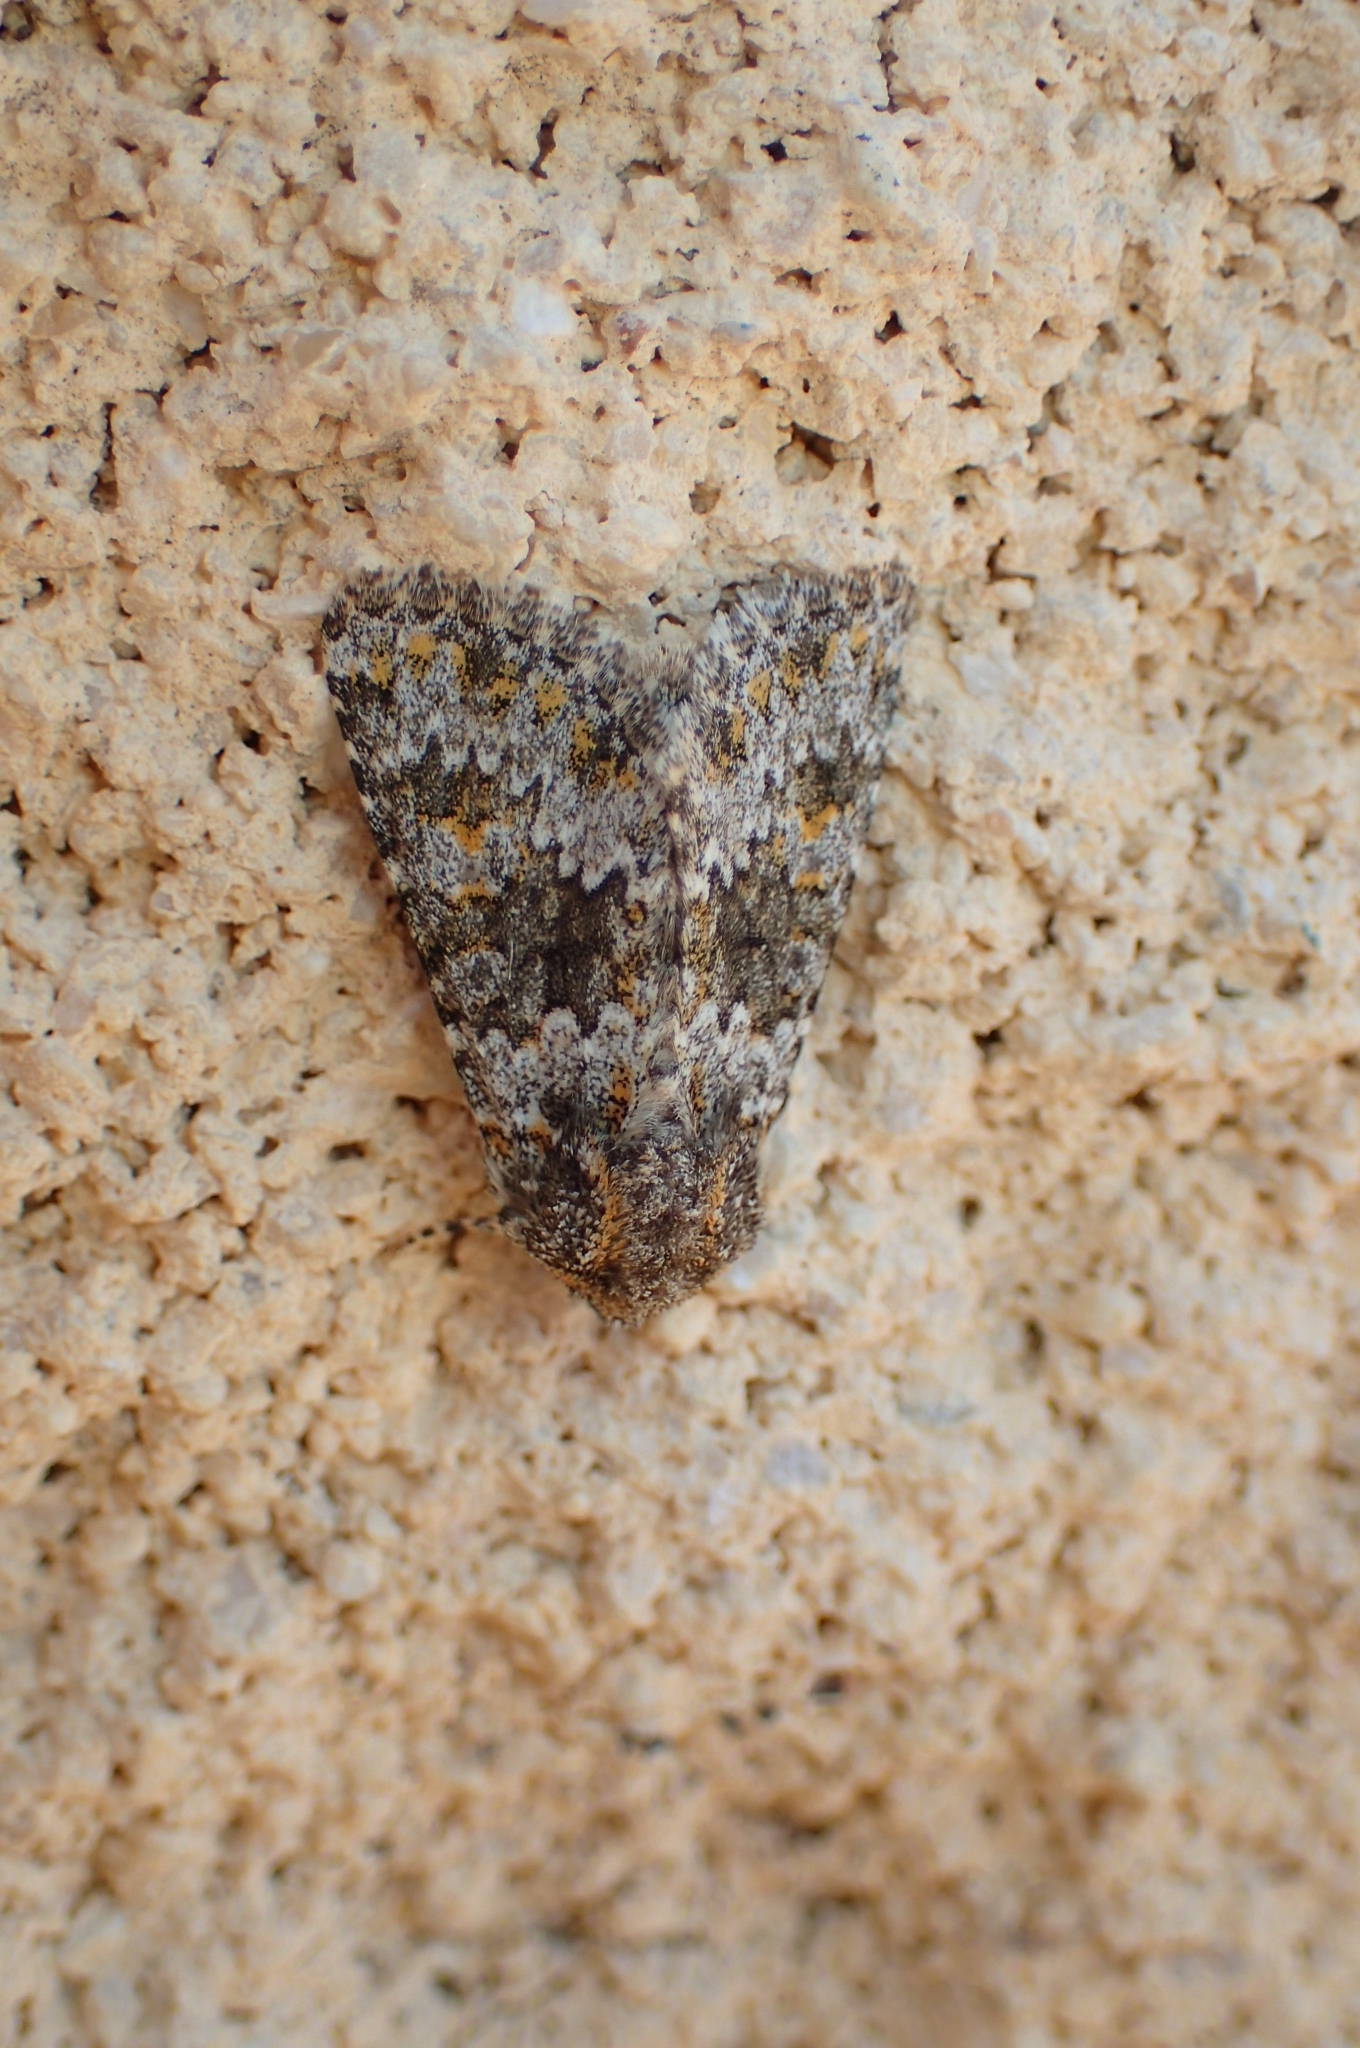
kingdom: Animalia
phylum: Arthropoda
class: Insecta
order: Lepidoptera
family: Noctuidae
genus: Hecatera
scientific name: Hecatera dysodea
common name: Small ranunculus
